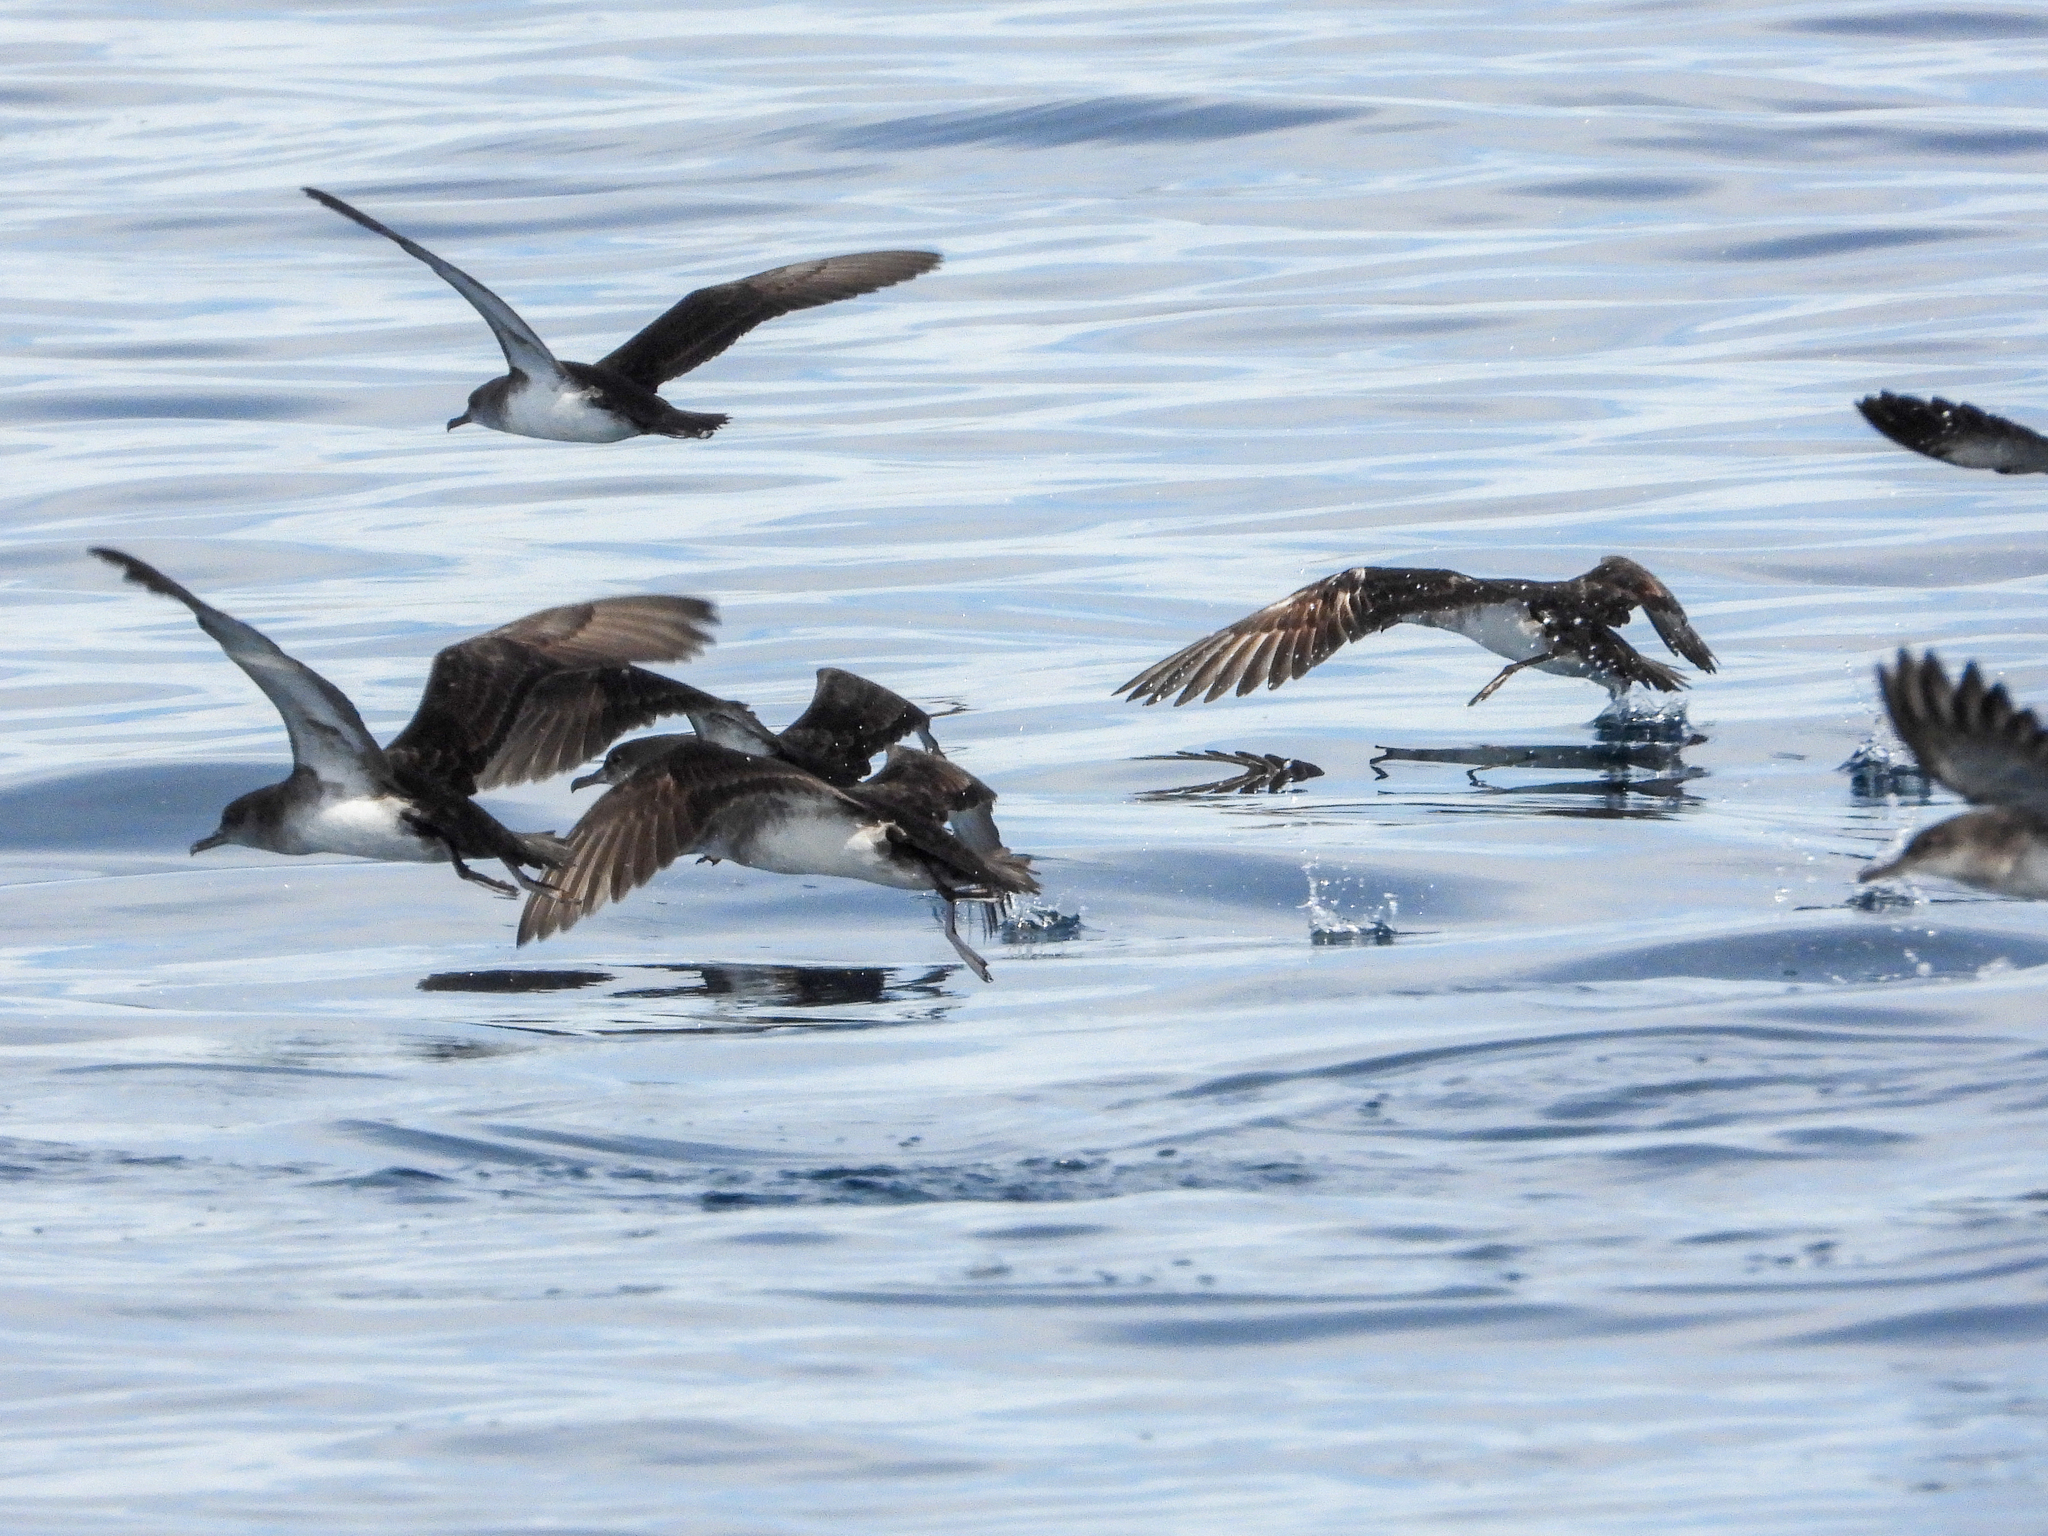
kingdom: Animalia
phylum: Chordata
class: Aves
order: Procellariiformes
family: Procellariidae
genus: Puffinus
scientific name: Puffinus opisthomelas
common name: Black-vented shearwater
